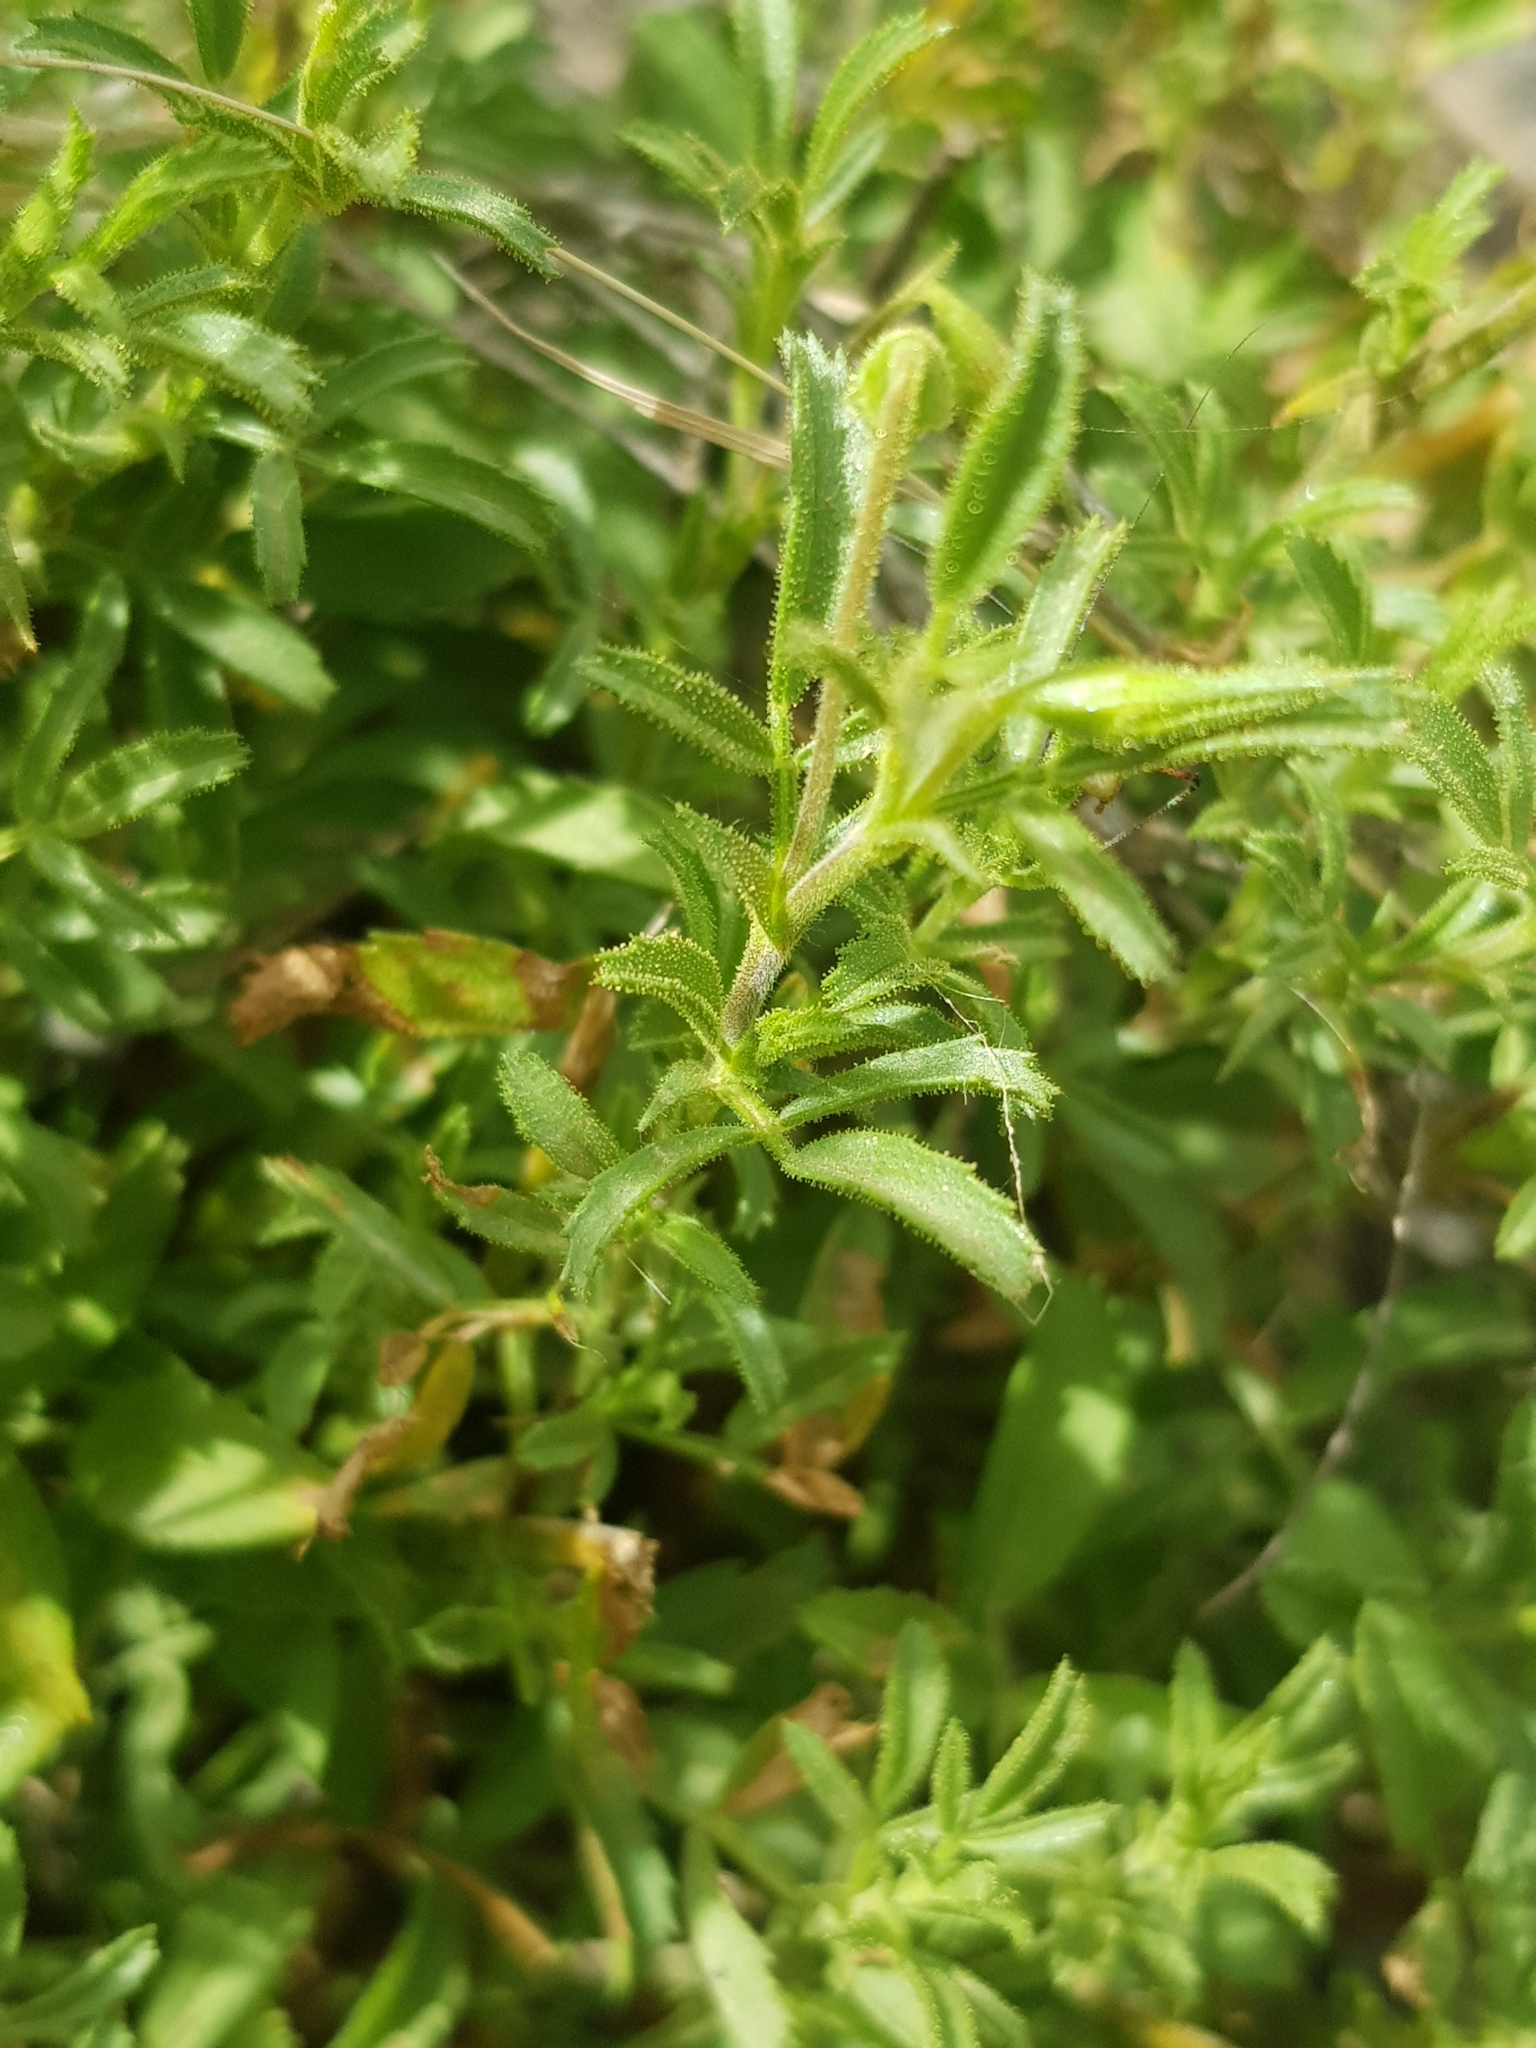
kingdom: Plantae
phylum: Tracheophyta
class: Magnoliopsida
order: Fabales
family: Fabaceae
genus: Ononis
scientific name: Ononis angustissima
